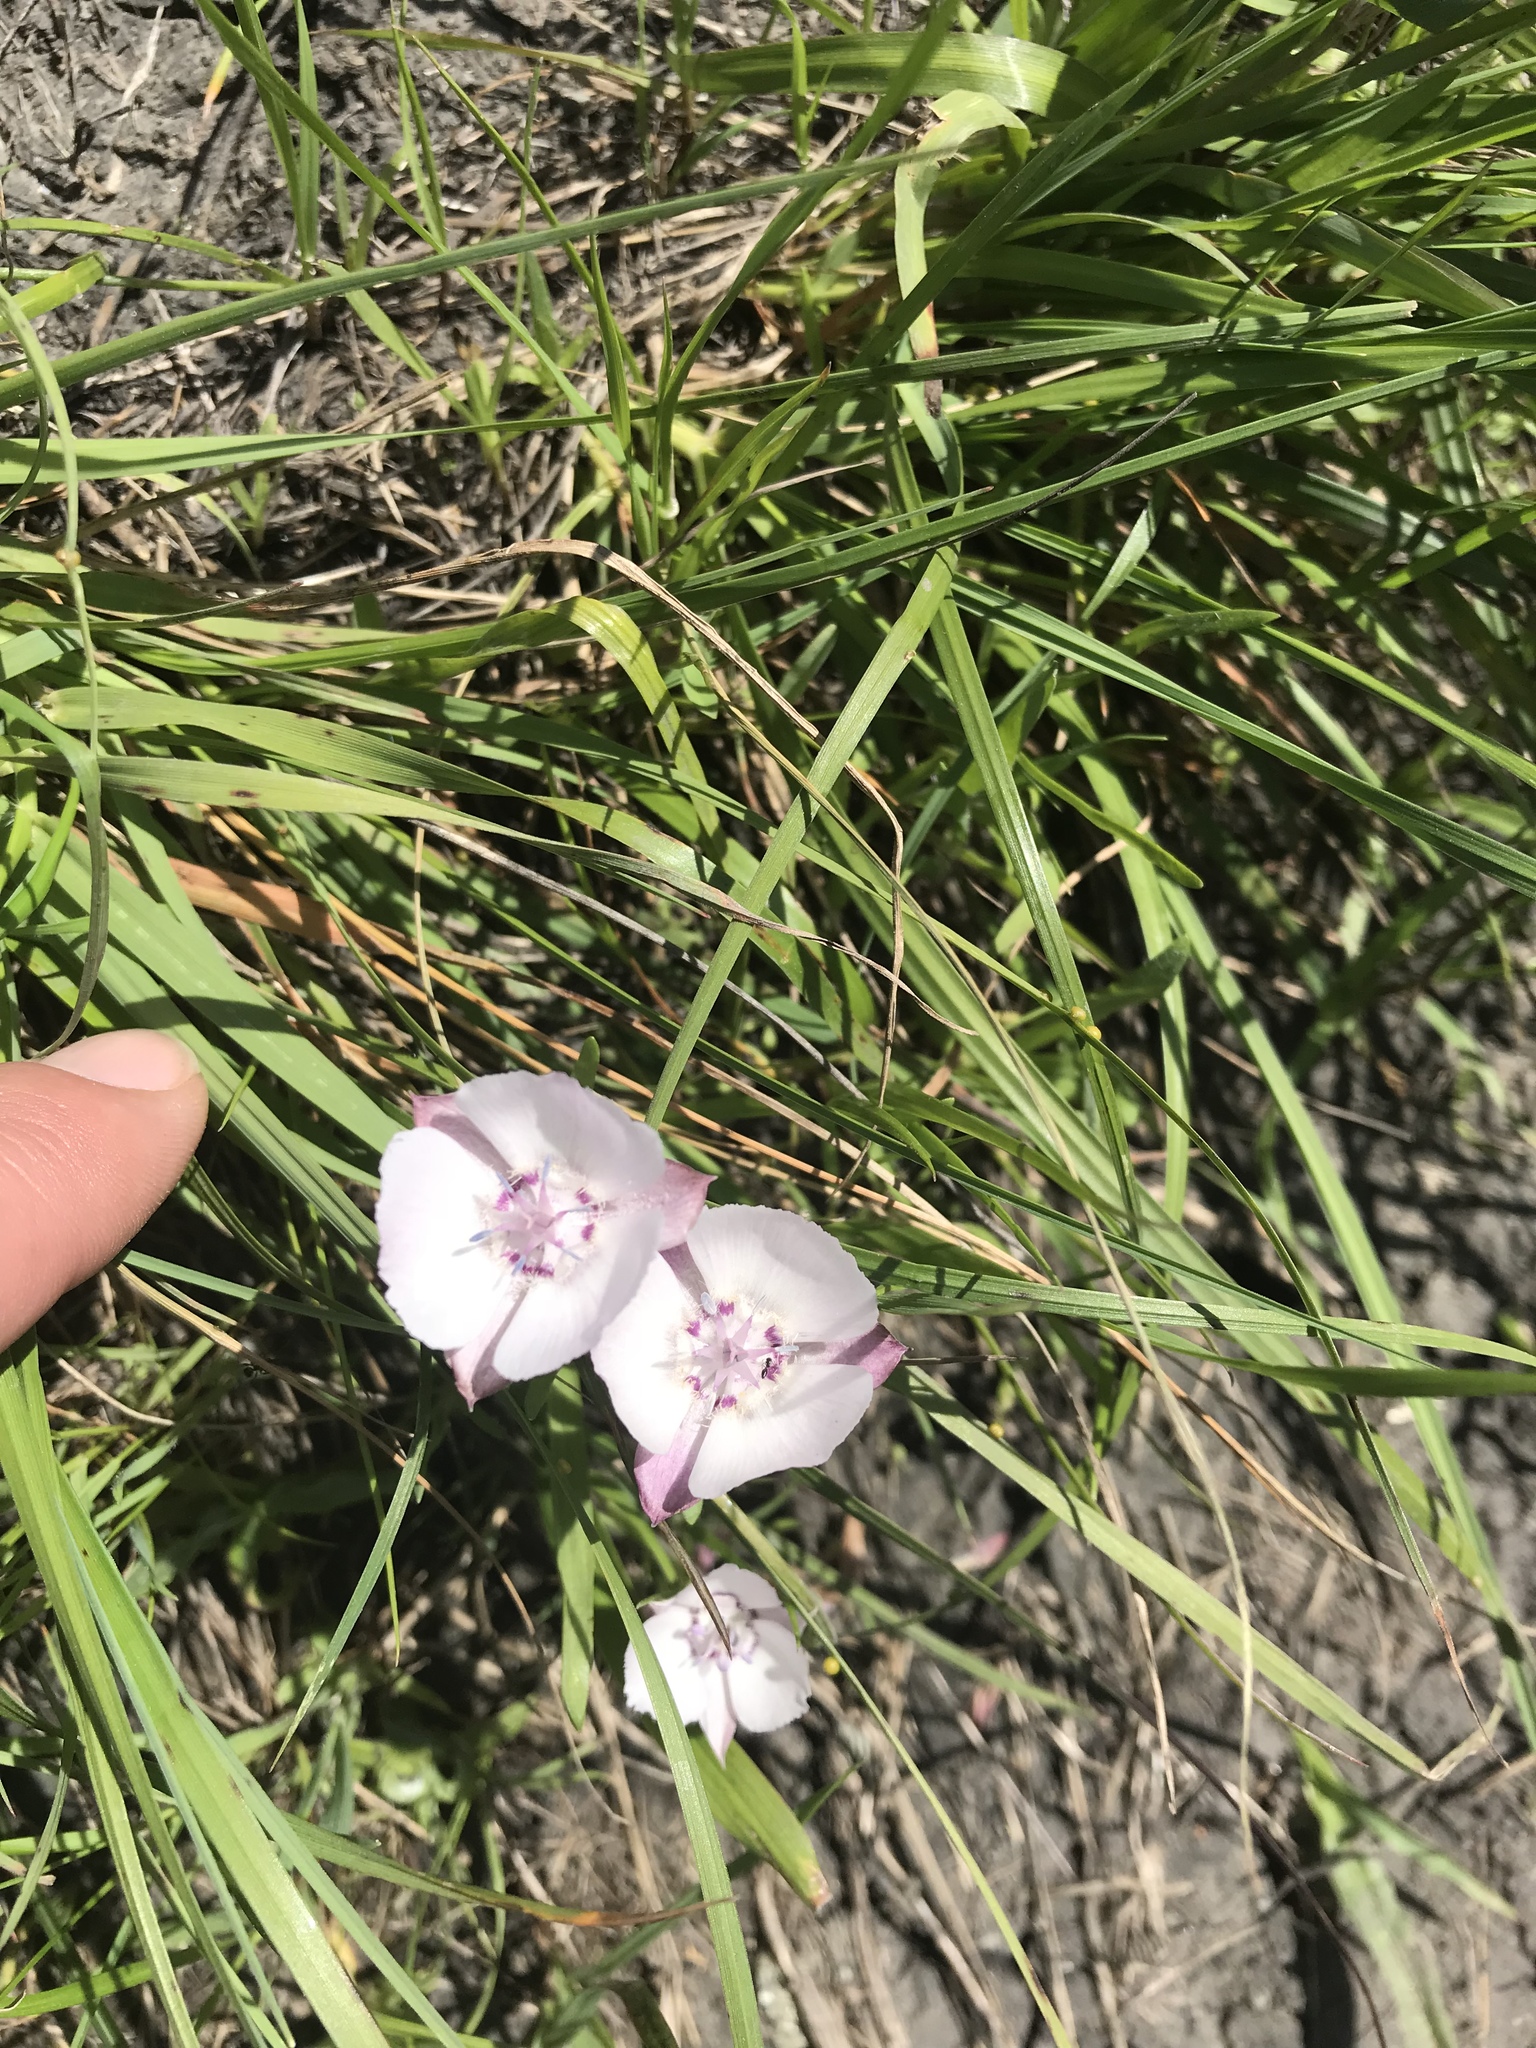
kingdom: Plantae
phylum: Tracheophyta
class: Liliopsida
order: Liliales
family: Liliaceae
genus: Calochortus
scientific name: Calochortus umbellatus
